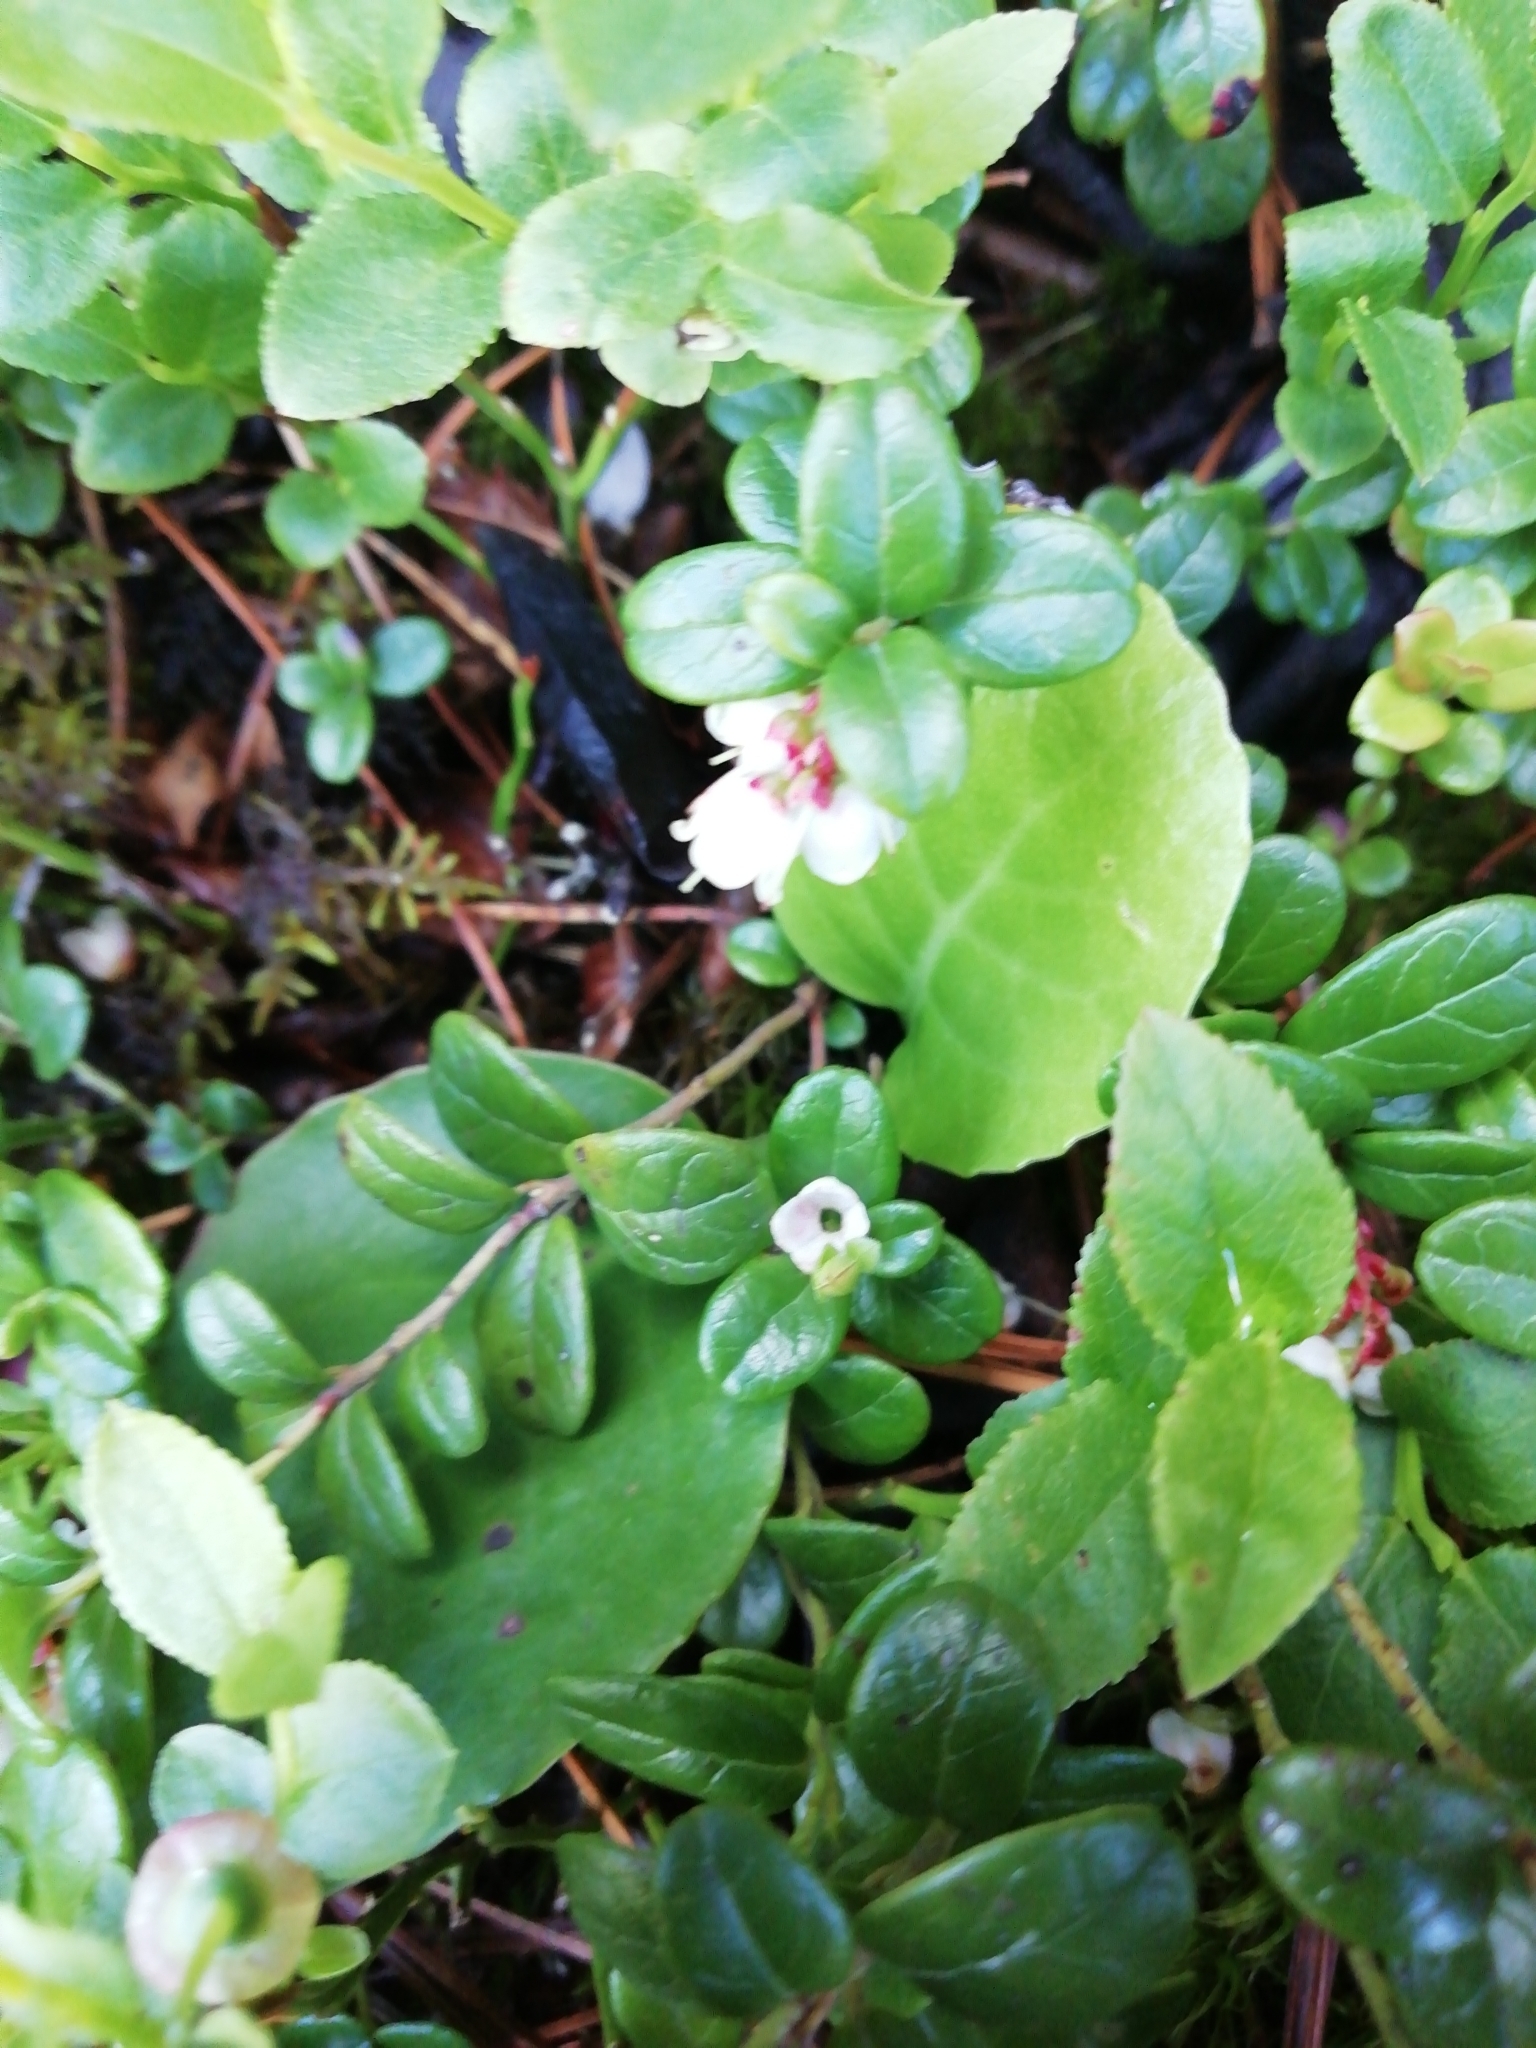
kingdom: Plantae
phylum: Tracheophyta
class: Magnoliopsida
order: Ericales
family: Ericaceae
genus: Vaccinium
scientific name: Vaccinium vitis-idaea
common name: Cowberry
